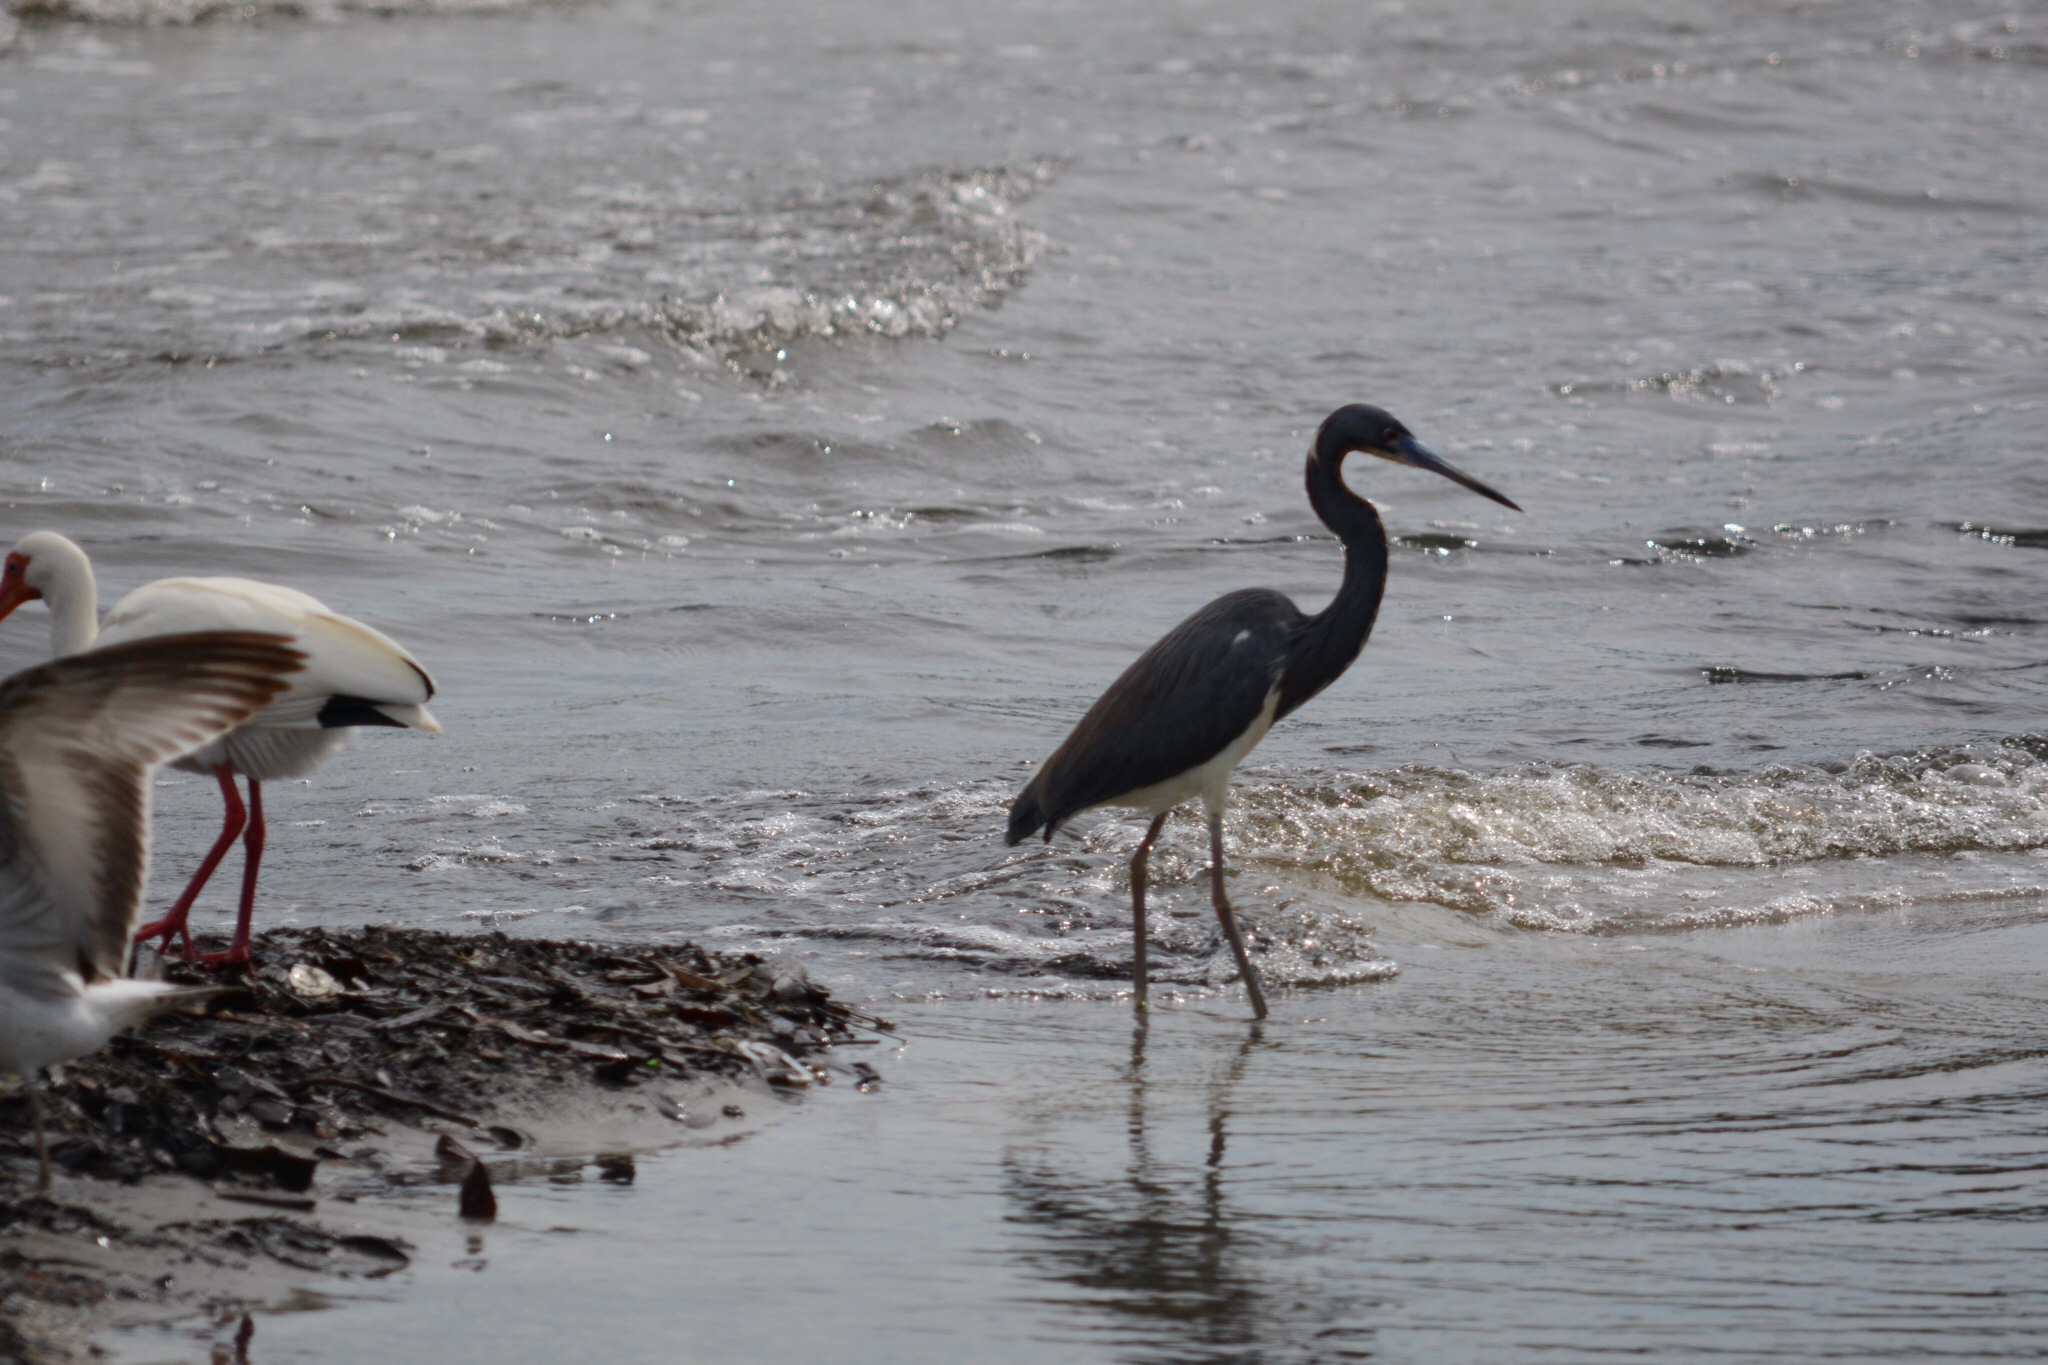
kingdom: Animalia
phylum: Chordata
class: Aves
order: Pelecaniformes
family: Ardeidae
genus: Egretta
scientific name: Egretta tricolor
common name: Tricolored heron
